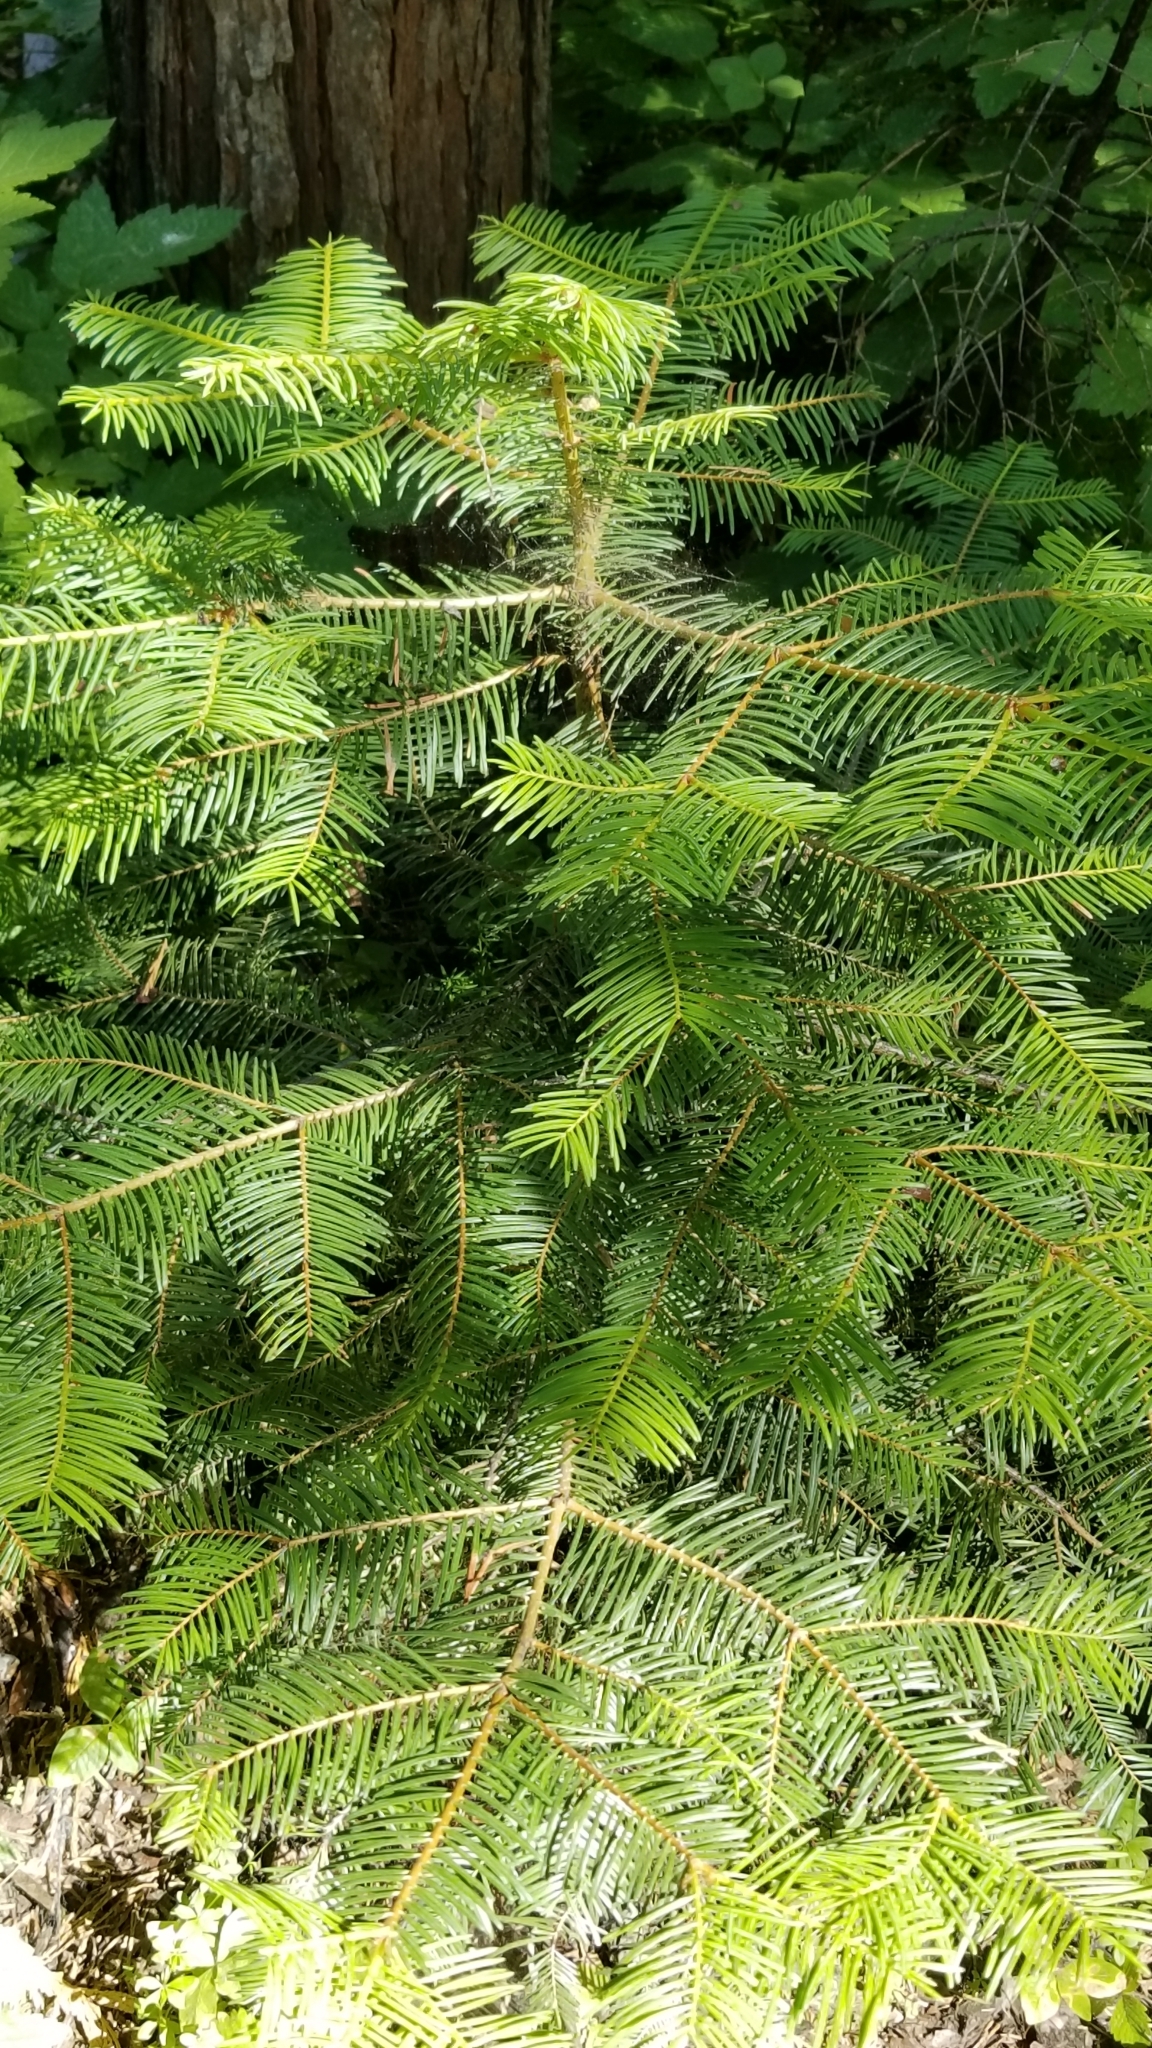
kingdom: Plantae
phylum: Tracheophyta
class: Pinopsida
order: Pinales
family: Pinaceae
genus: Abies
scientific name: Abies concolor
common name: Colorado fir
